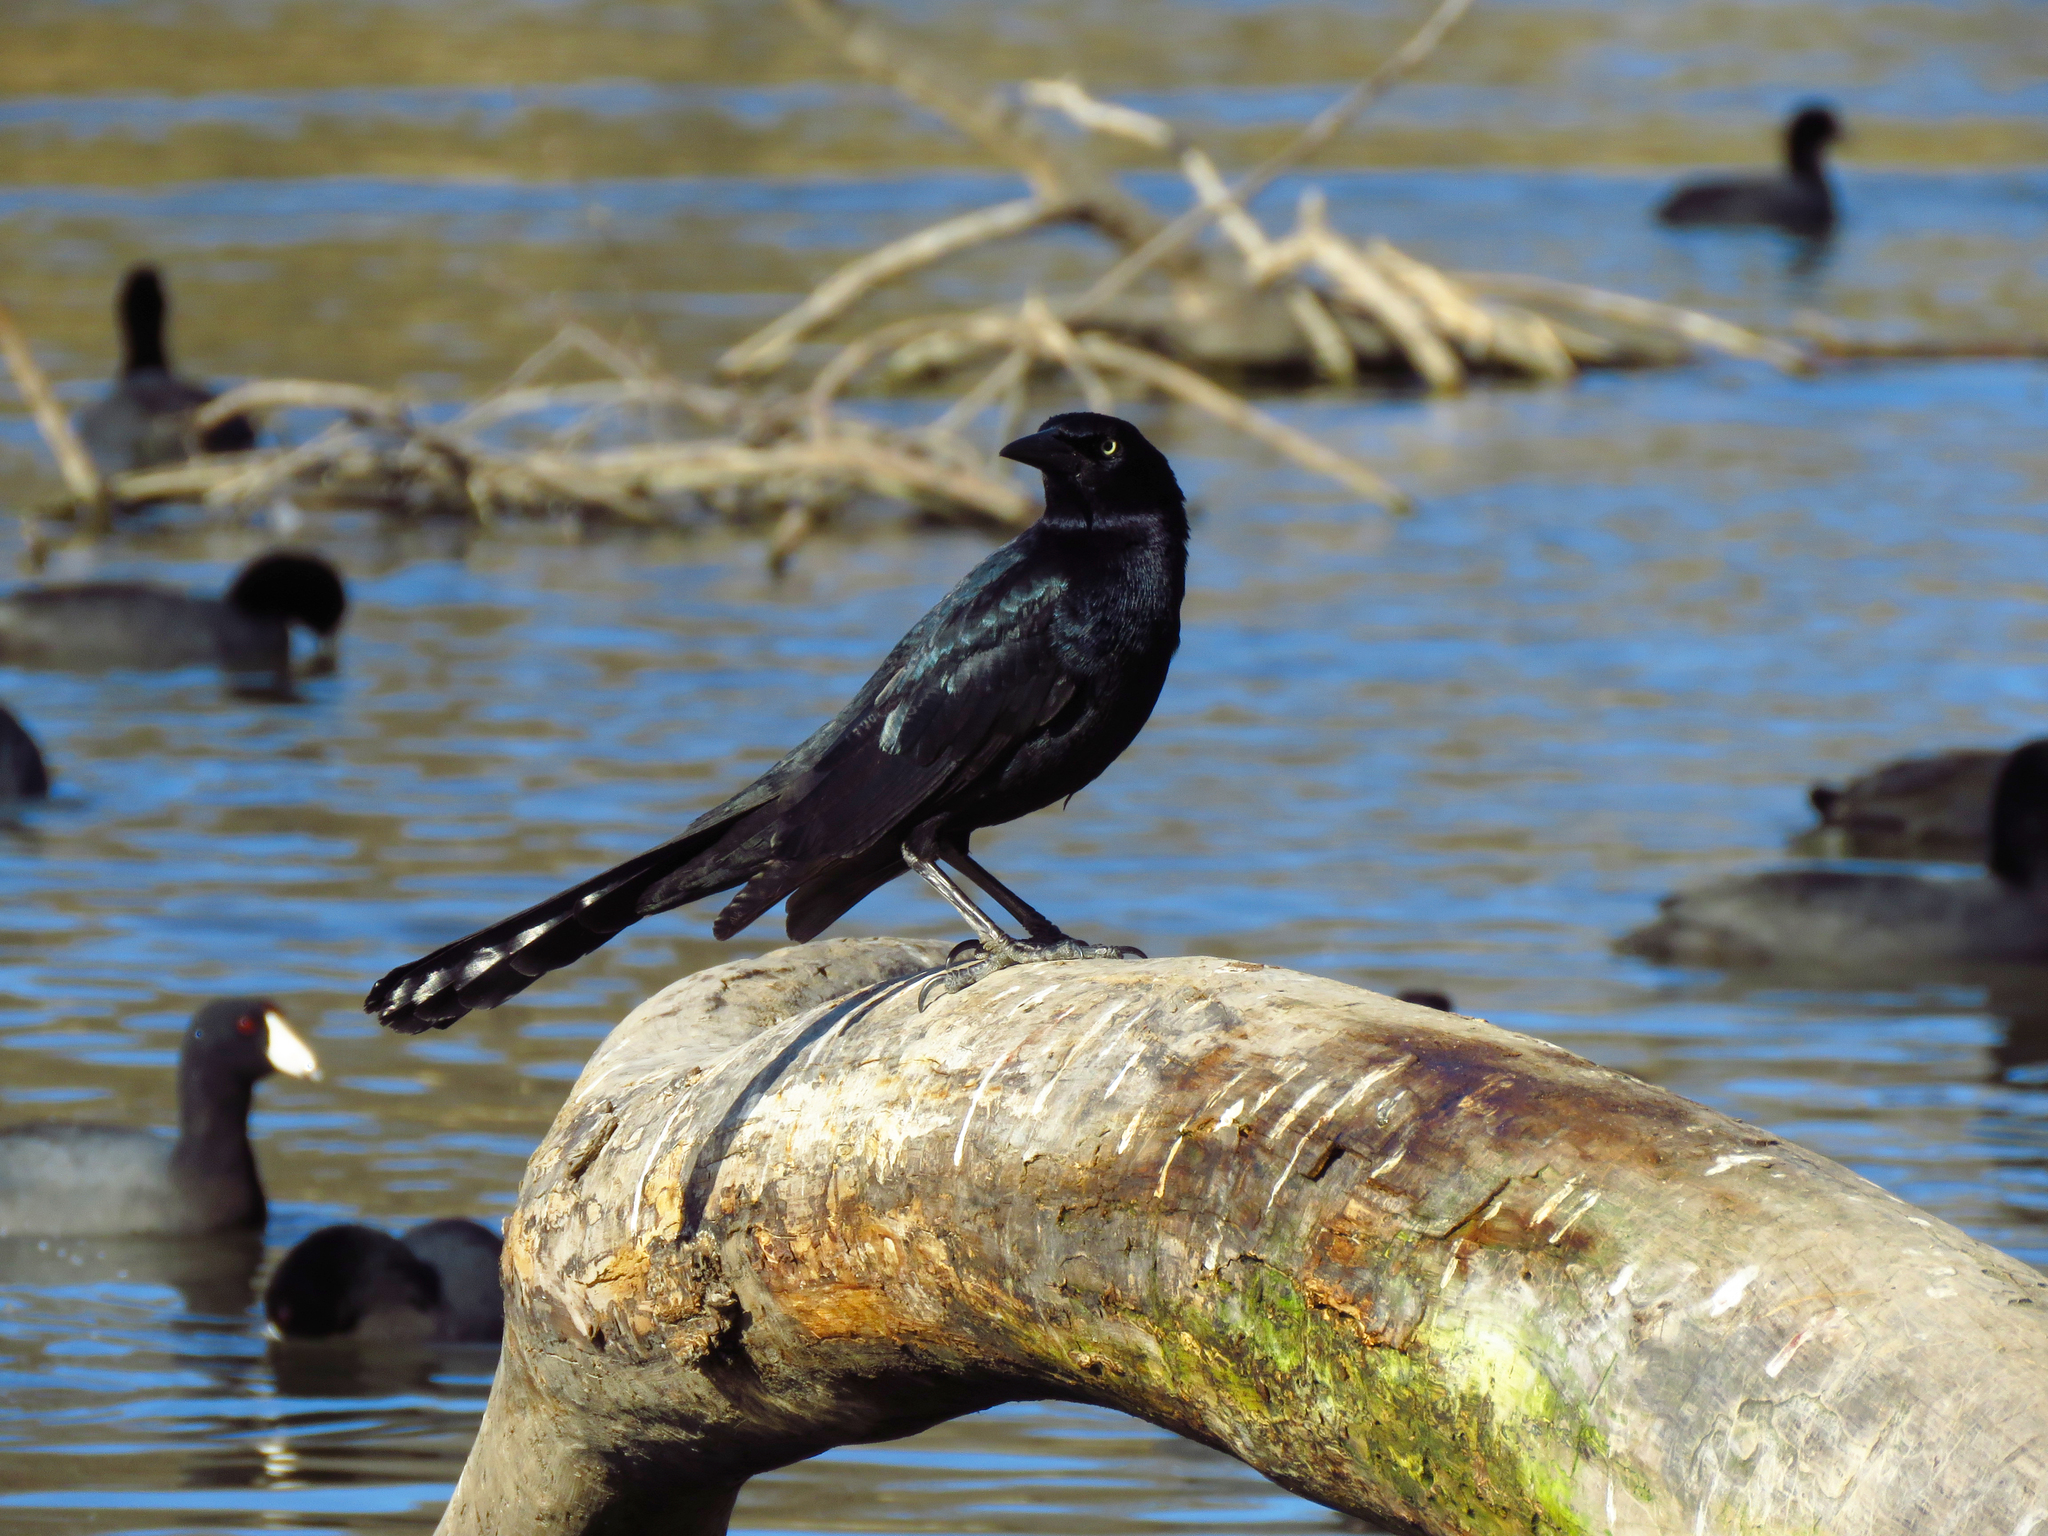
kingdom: Animalia
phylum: Chordata
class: Aves
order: Passeriformes
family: Icteridae
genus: Quiscalus
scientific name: Quiscalus mexicanus
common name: Great-tailed grackle
